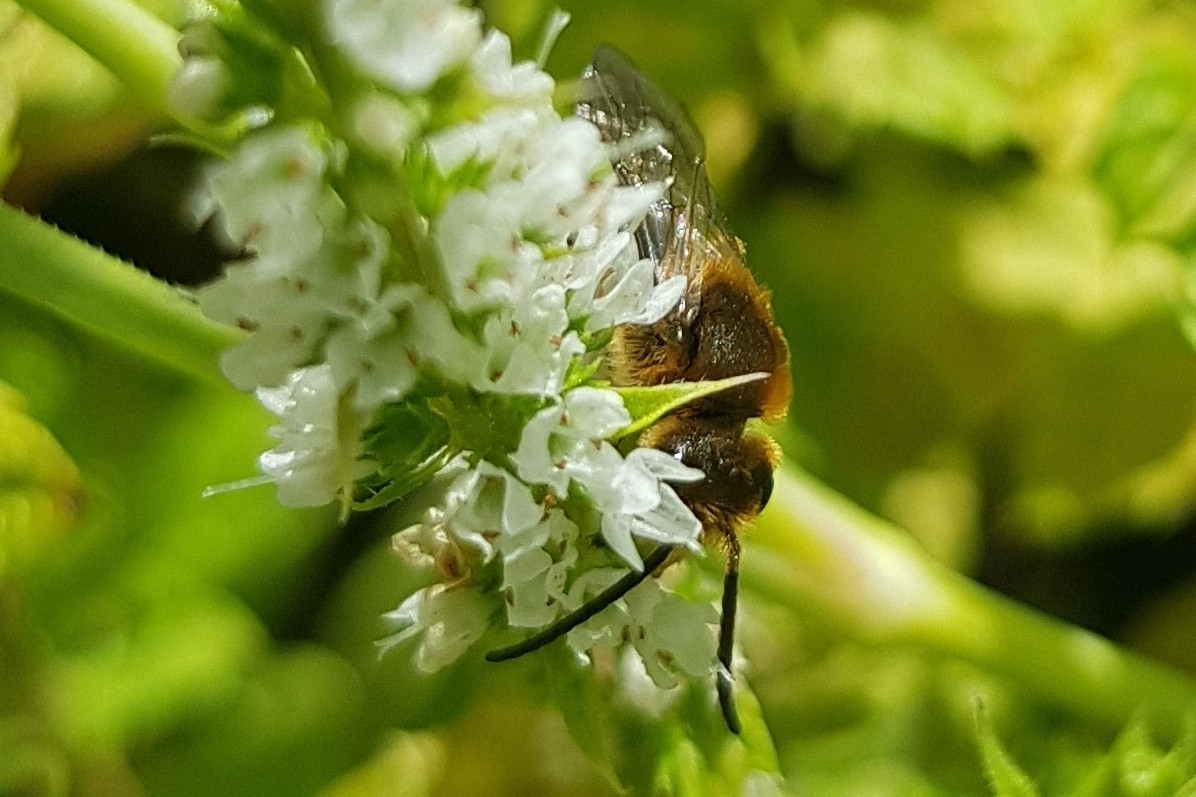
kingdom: Animalia
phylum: Arthropoda
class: Insecta
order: Hymenoptera
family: Halictidae
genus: Halictus
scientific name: Halictus rubicundus
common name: Orange-legged furrow bee
